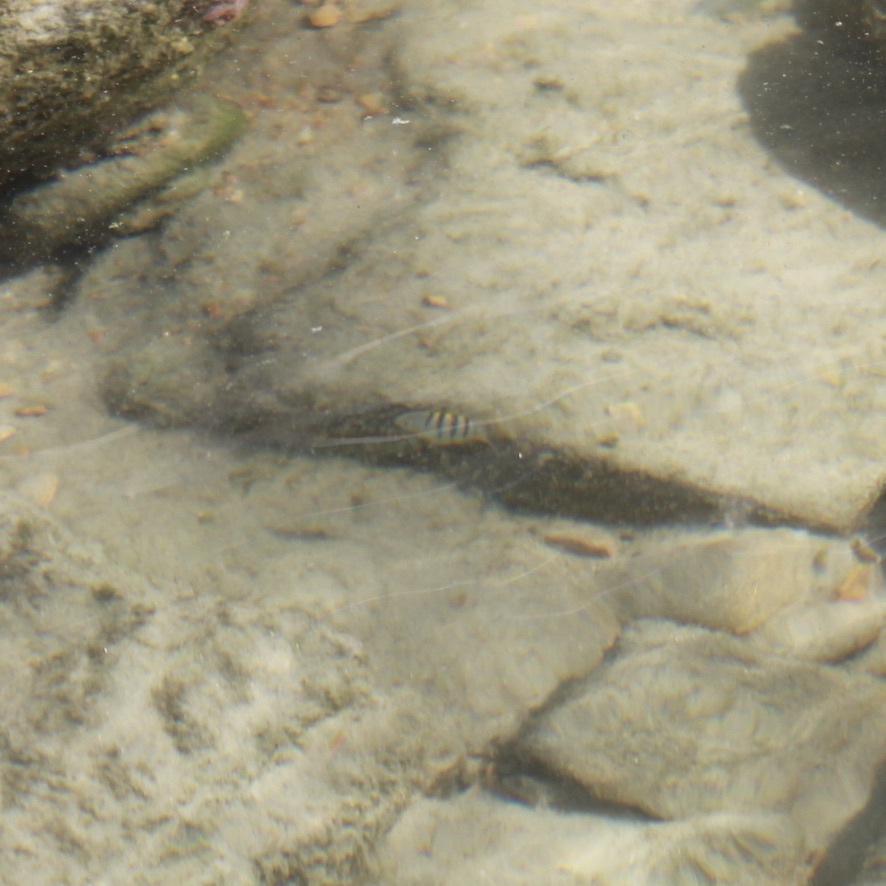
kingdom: Animalia
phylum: Chordata
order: Perciformes
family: Pomacentridae
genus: Abudefduf
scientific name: Abudefduf saxatilis
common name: Sergeant major
